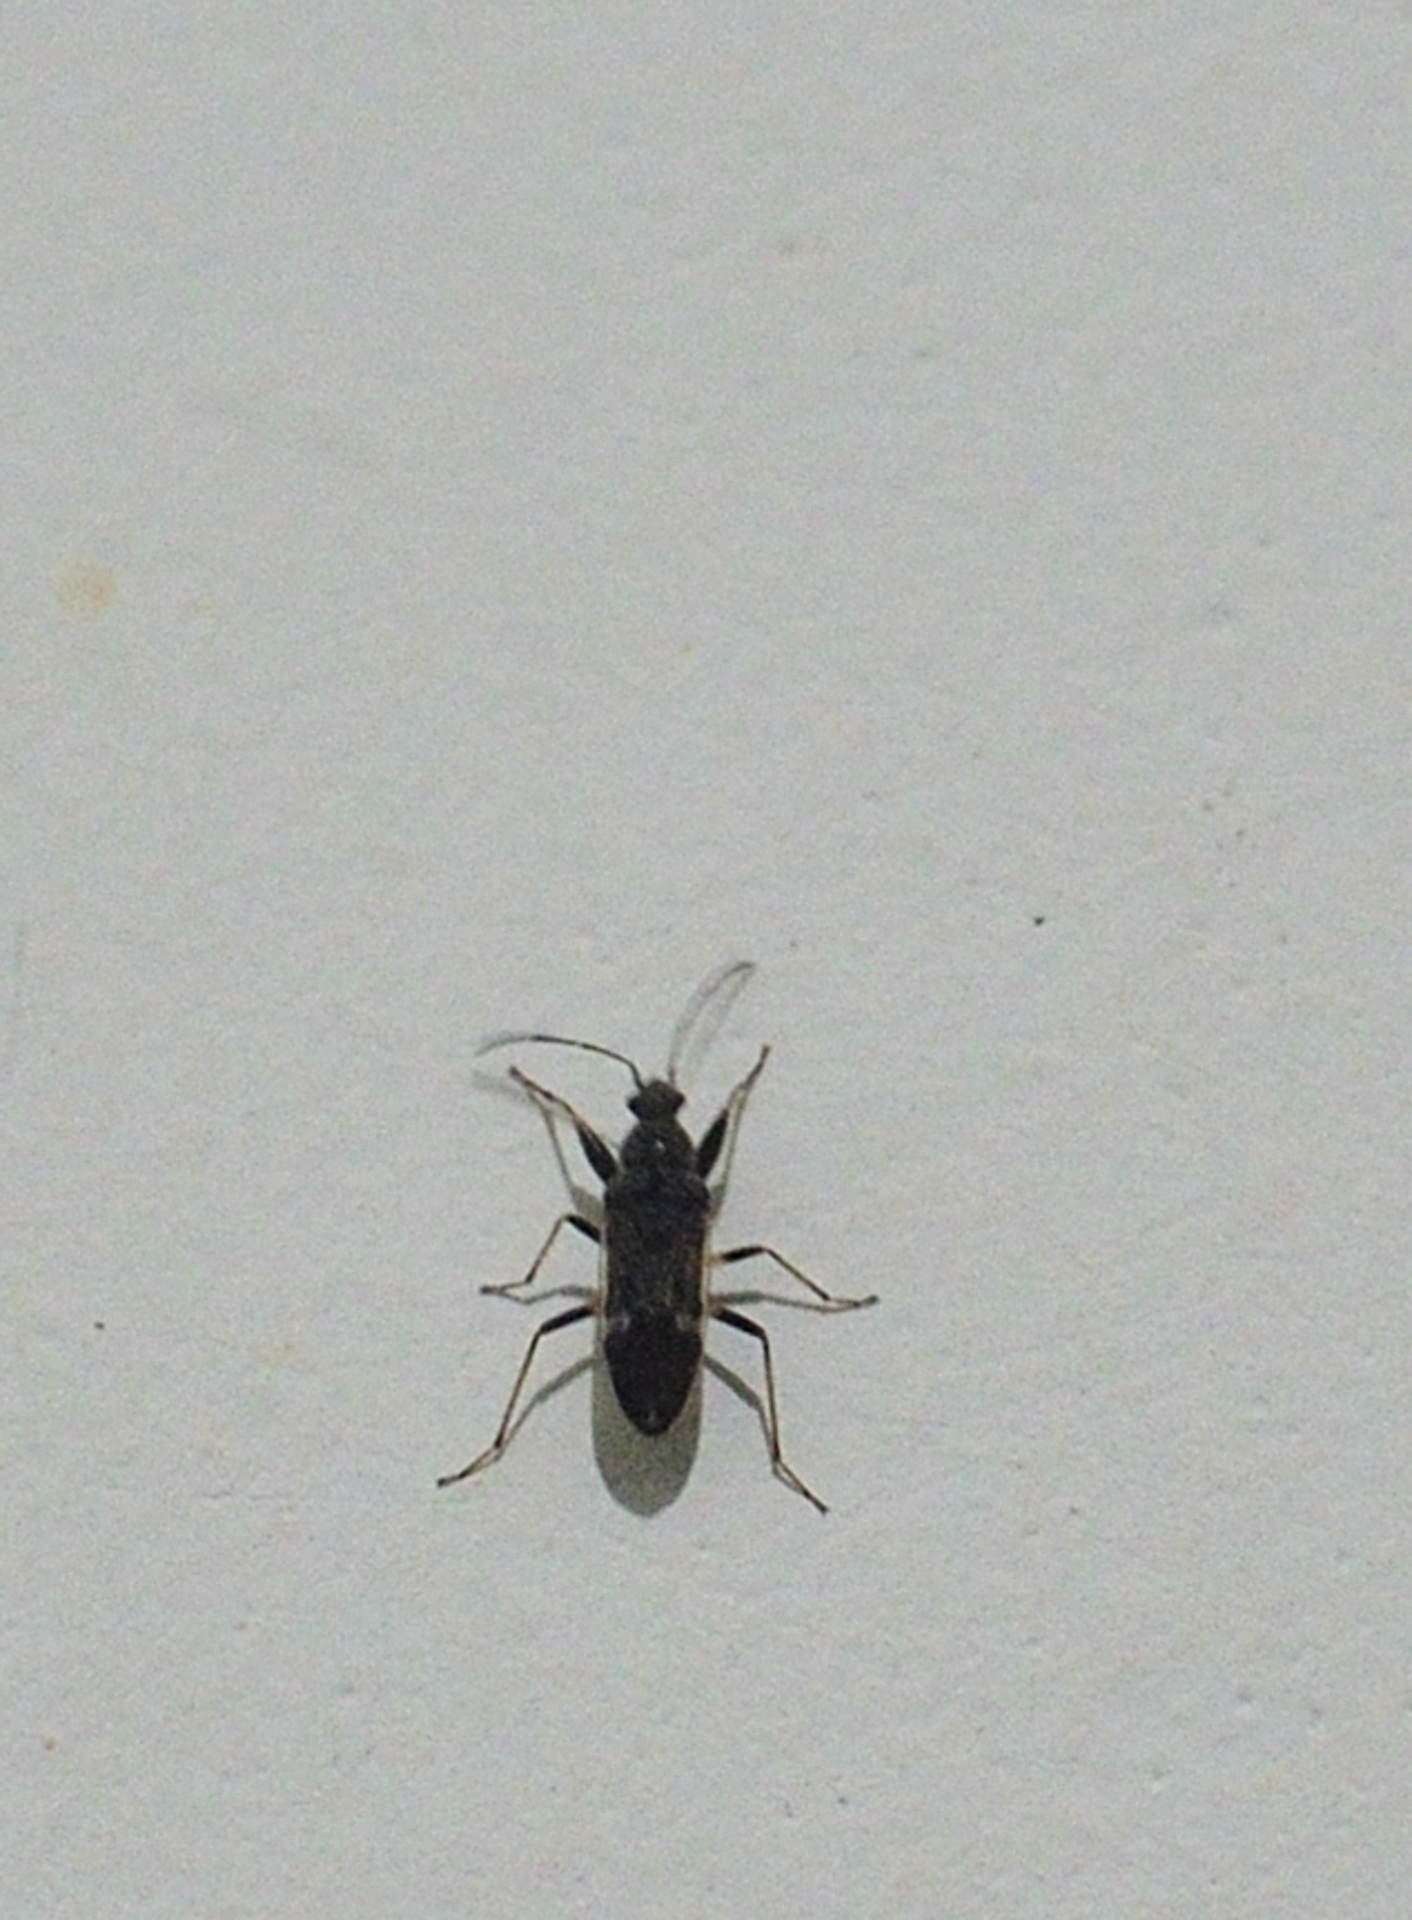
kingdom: Animalia
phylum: Arthropoda
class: Insecta
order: Hemiptera
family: Rhyparochromidae
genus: Horridipamera
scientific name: Horridipamera nietneri
